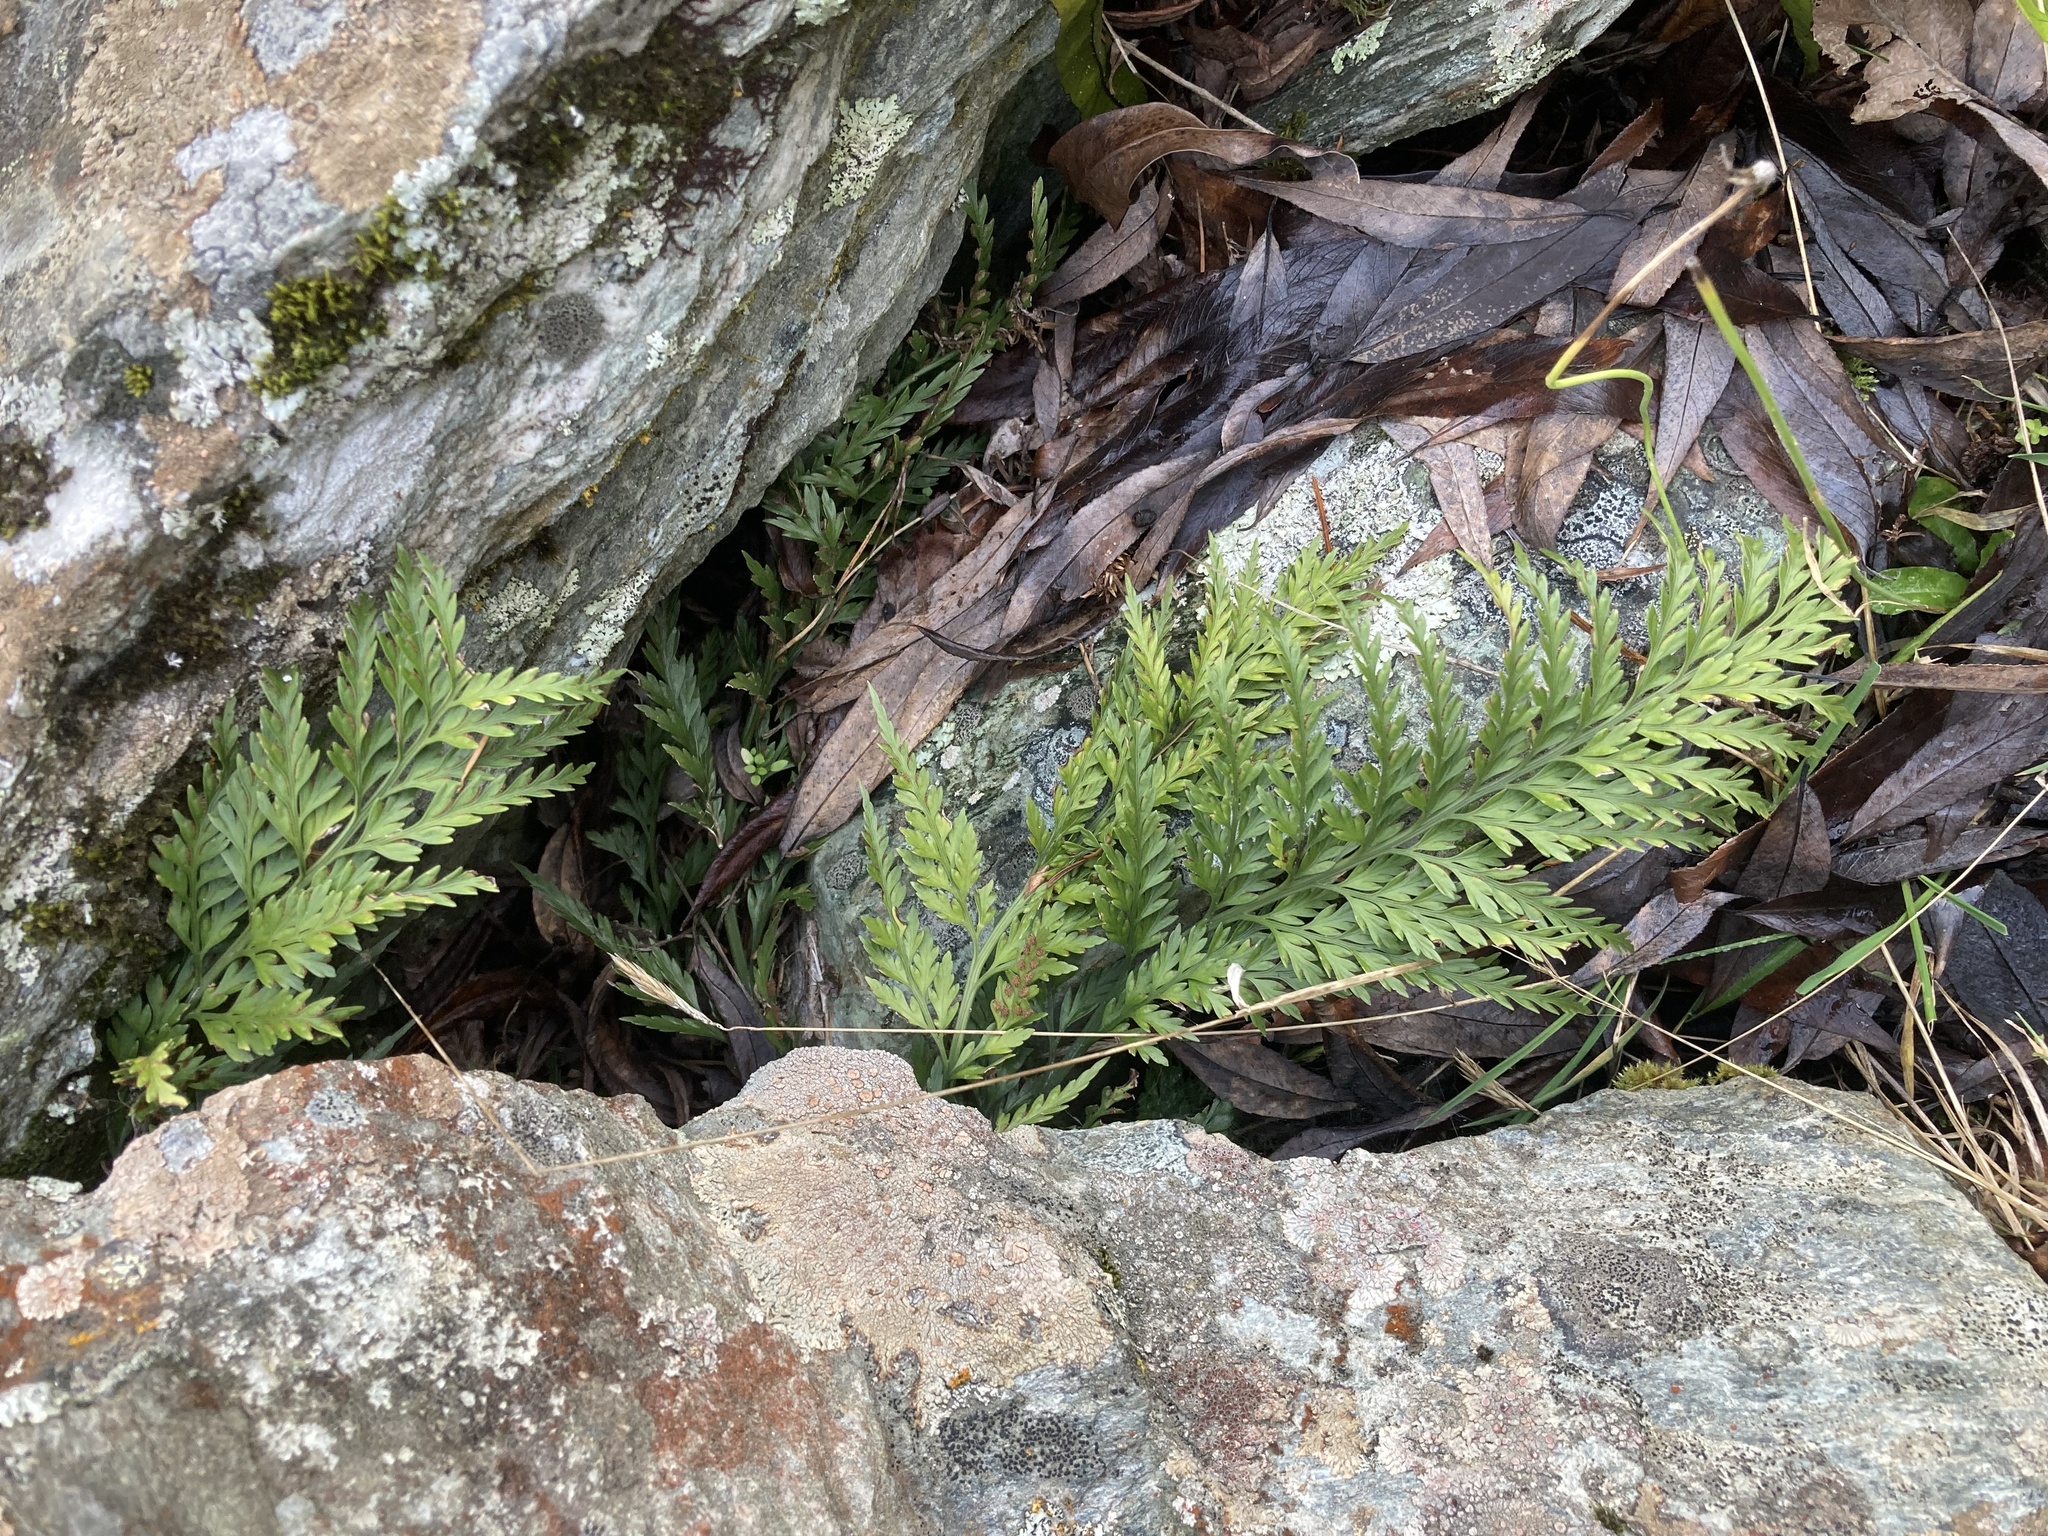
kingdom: Plantae
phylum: Tracheophyta
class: Polypodiopsida
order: Polypodiales
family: Aspleniaceae
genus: Asplenium
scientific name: Asplenium appendiculatum
